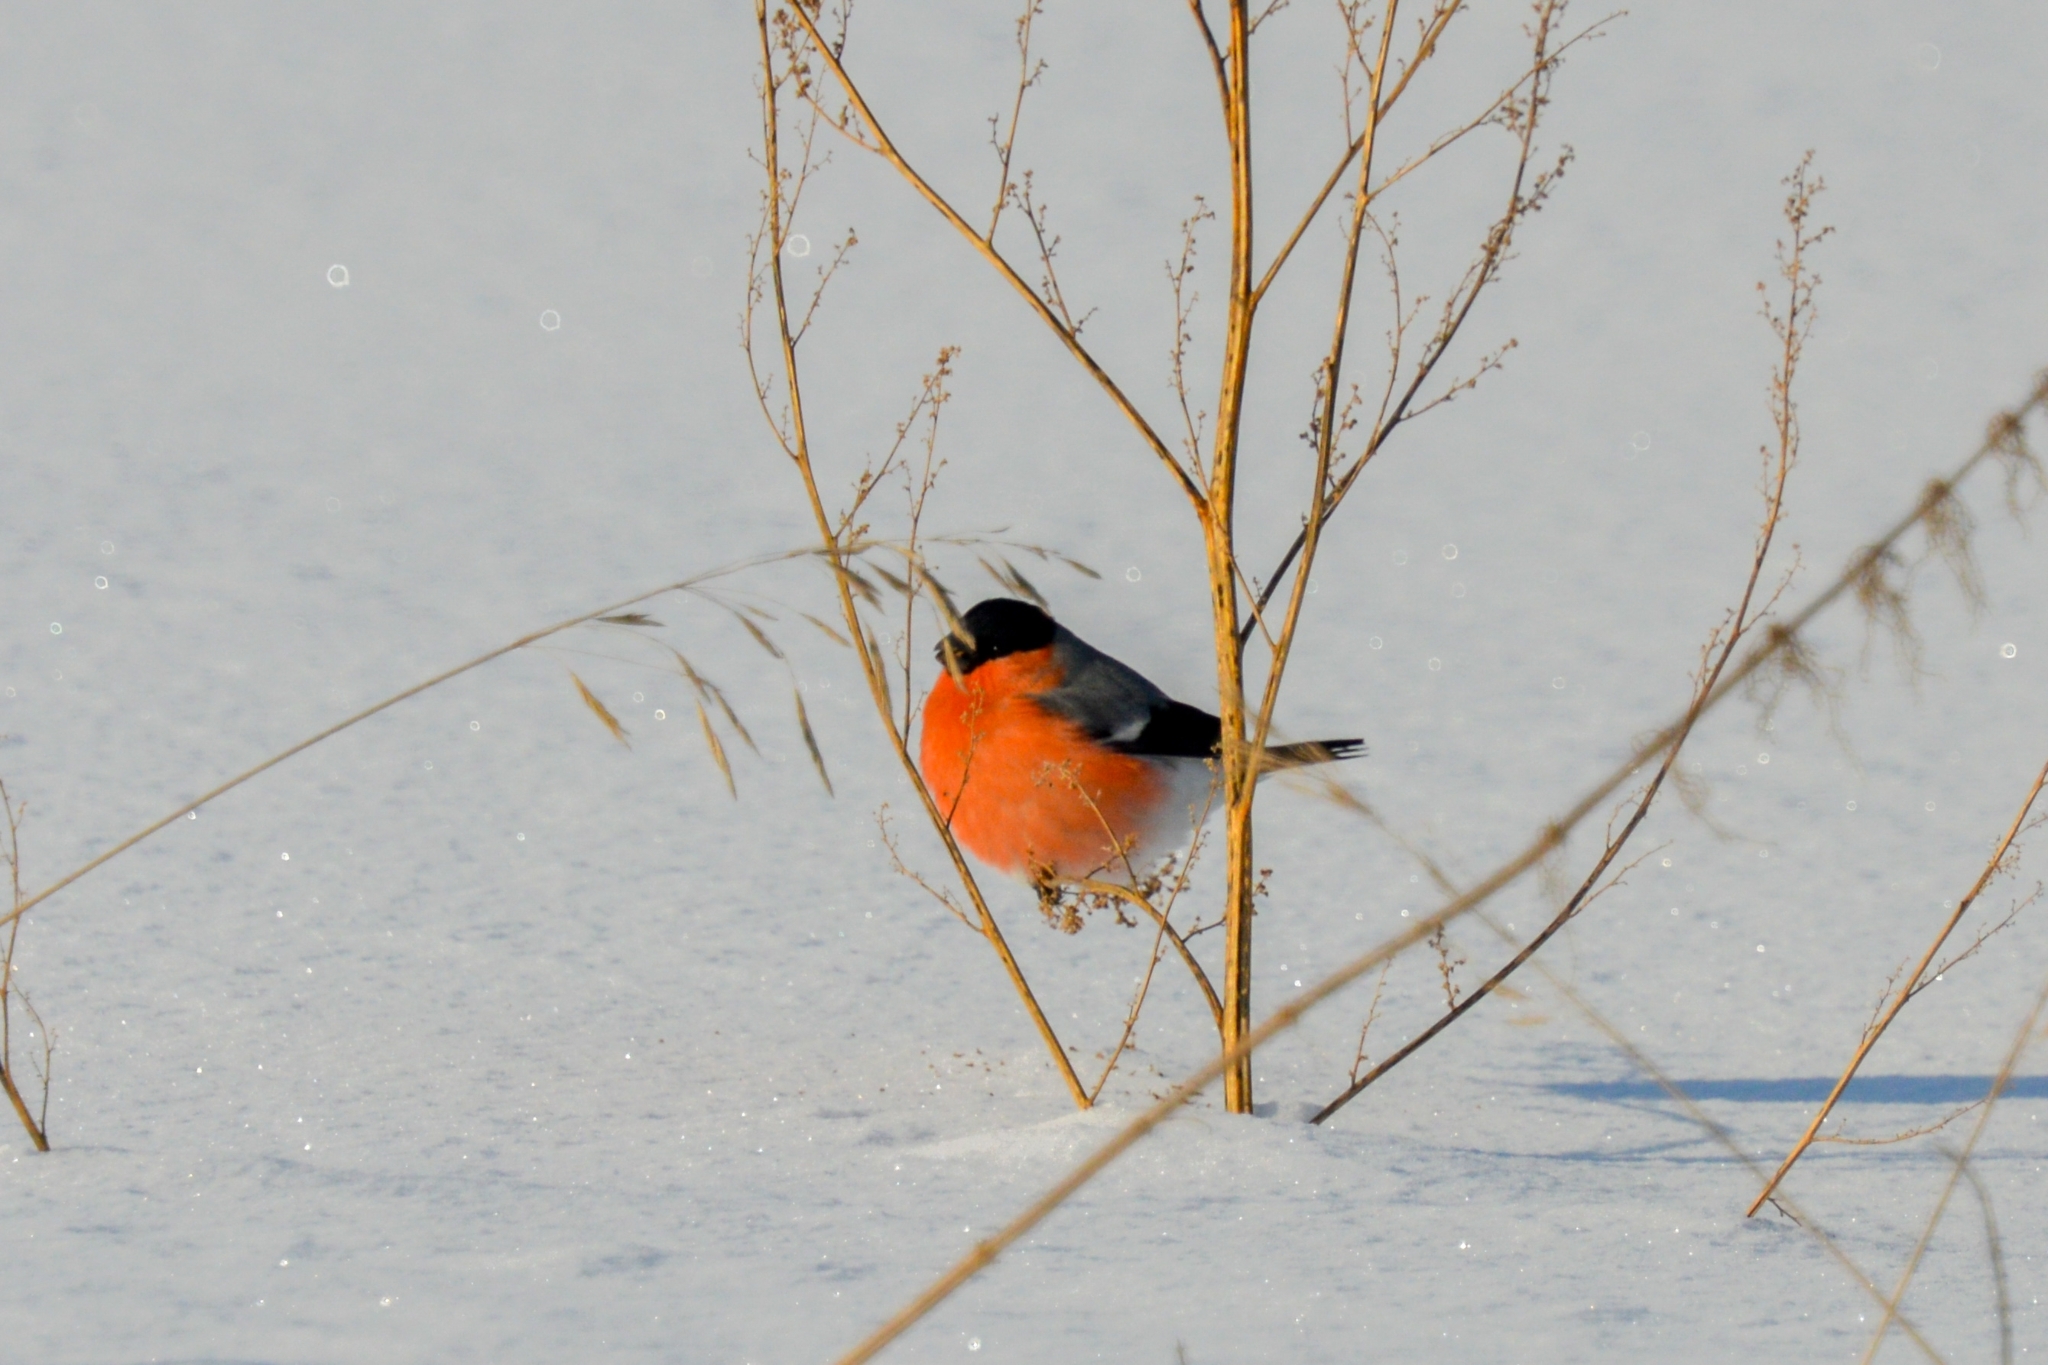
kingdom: Animalia
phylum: Chordata
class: Aves
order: Passeriformes
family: Fringillidae
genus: Pyrrhula
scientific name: Pyrrhula pyrrhula
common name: Eurasian bullfinch
